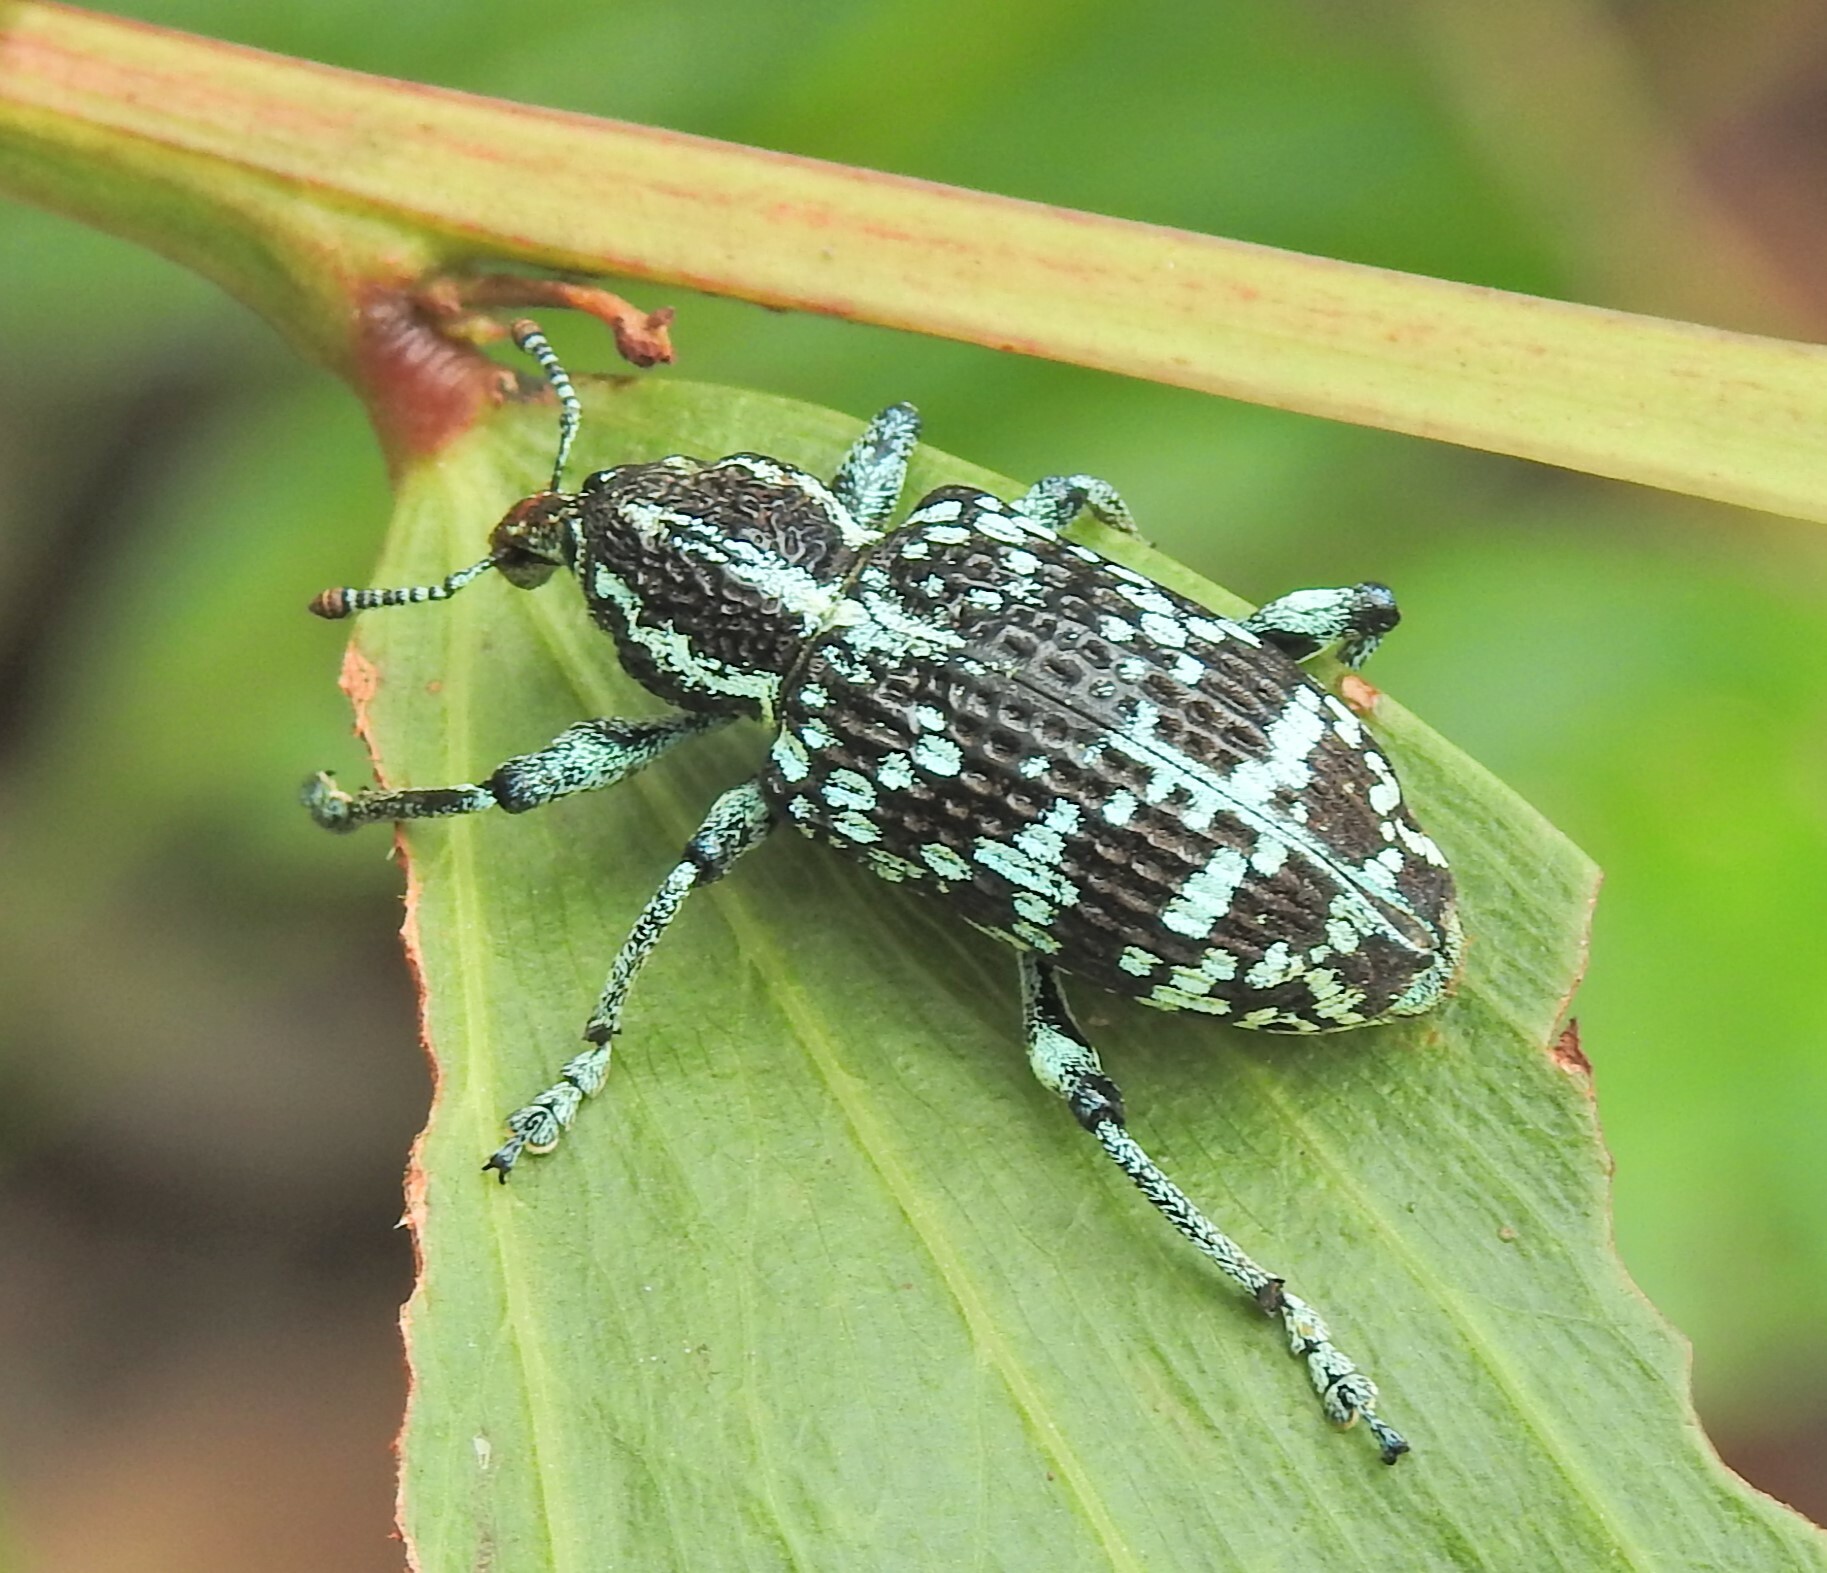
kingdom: Animalia
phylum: Arthropoda
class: Insecta
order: Coleoptera
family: Curculionidae
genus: Chrysolopus
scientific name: Chrysolopus spectabilis
